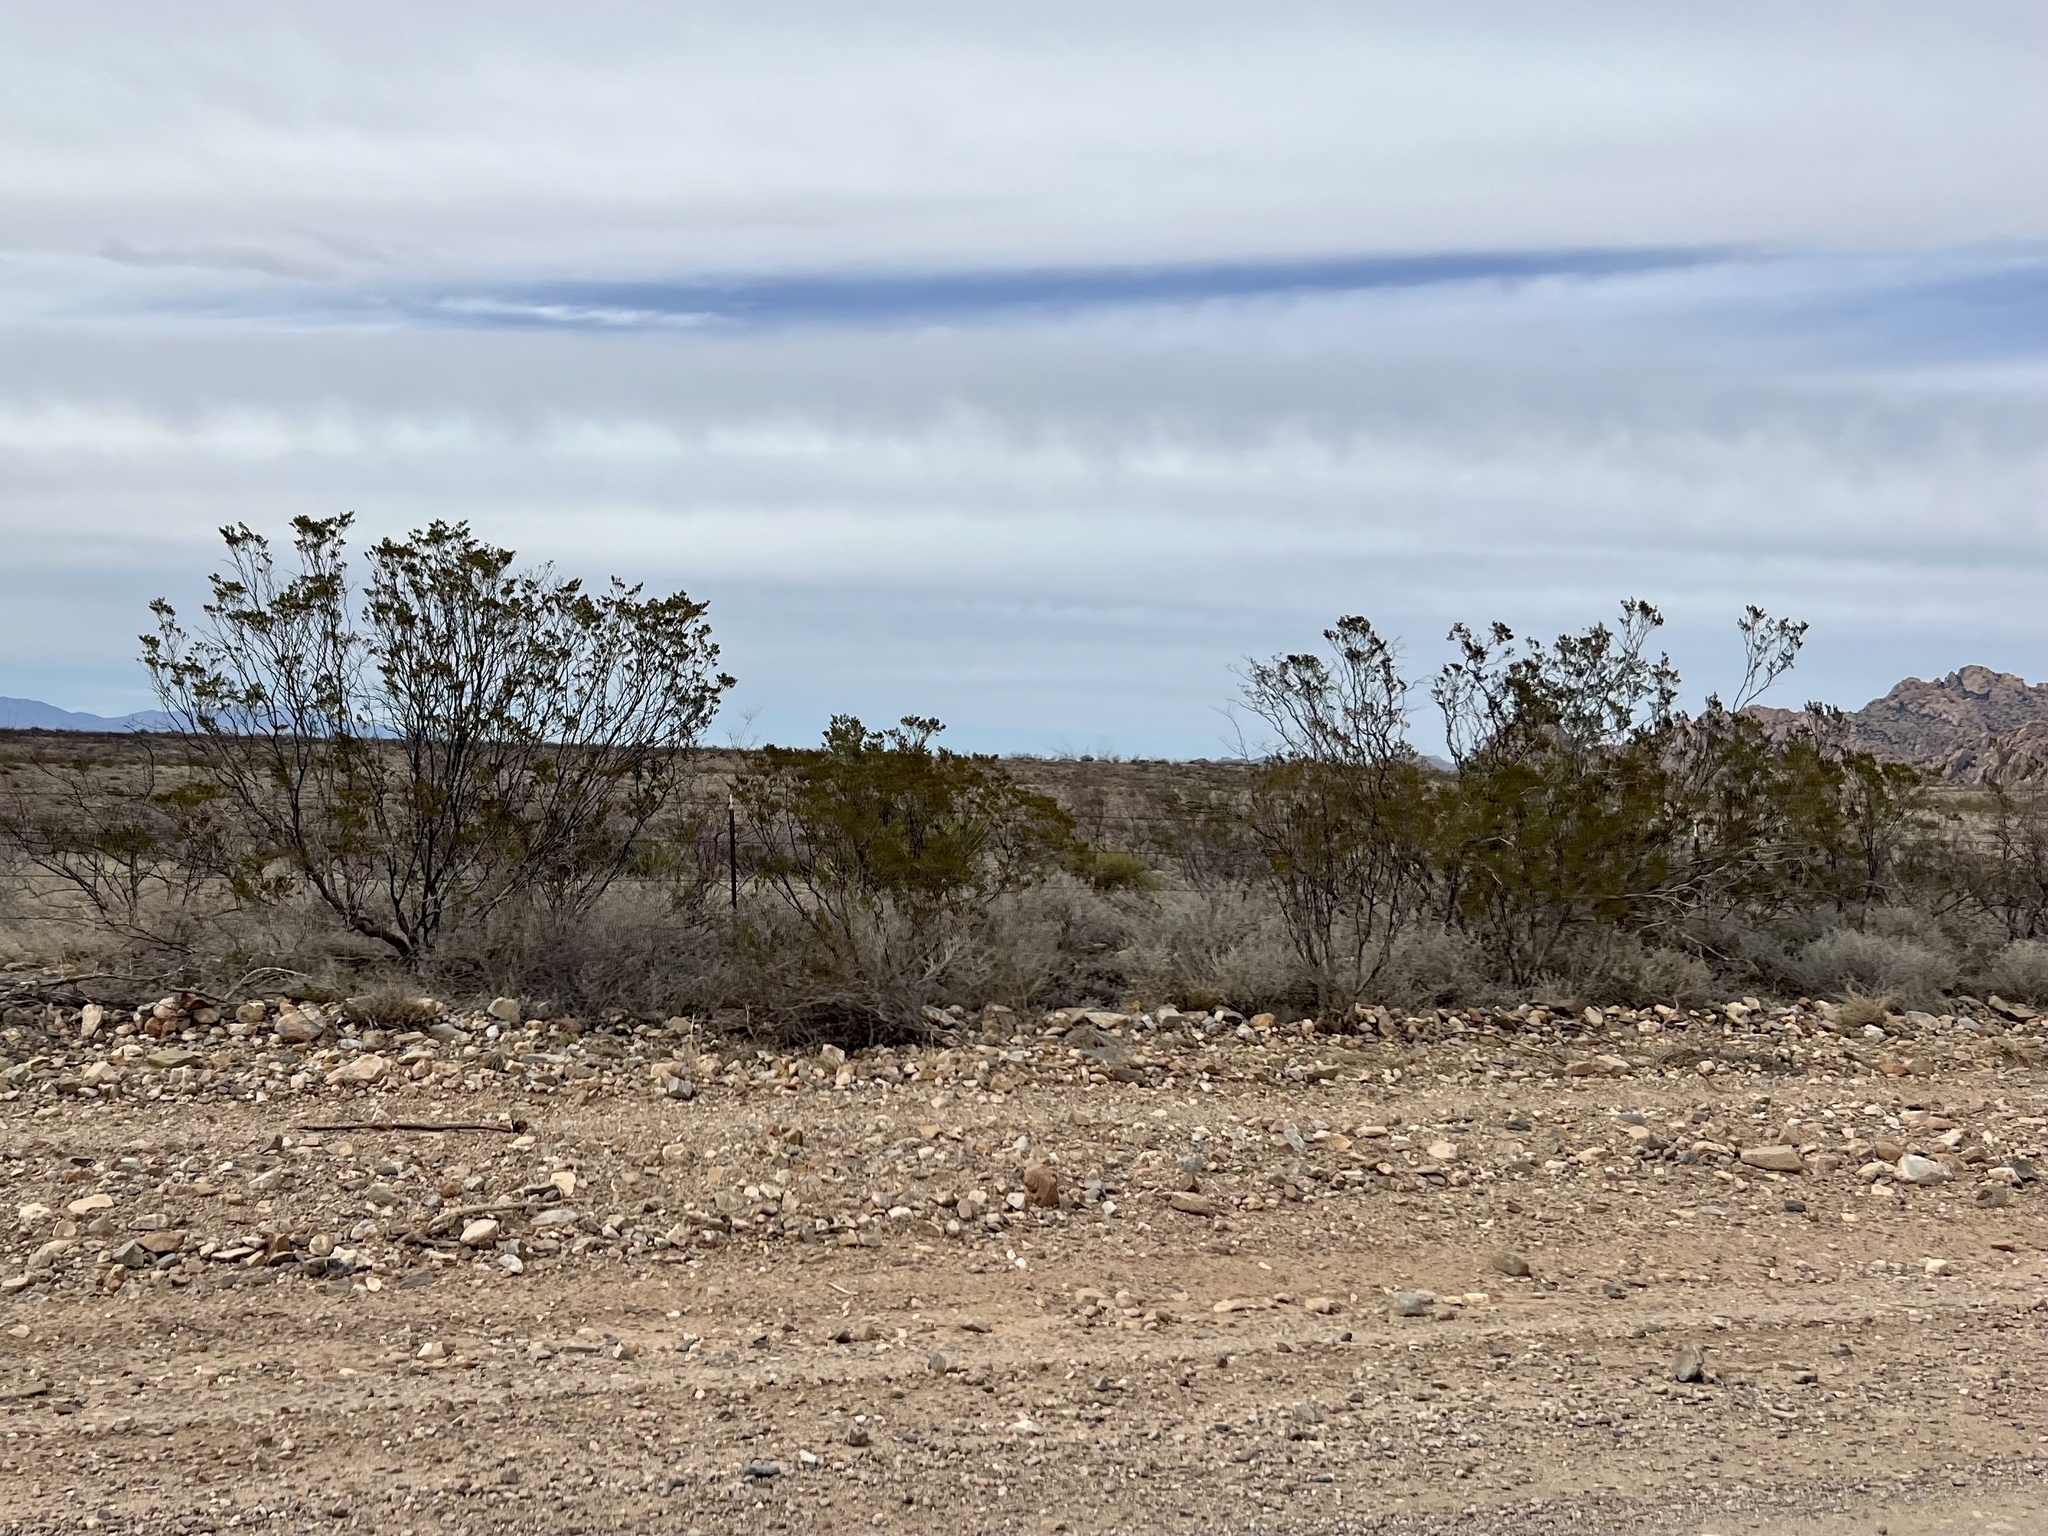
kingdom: Plantae
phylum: Tracheophyta
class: Magnoliopsida
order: Zygophyllales
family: Zygophyllaceae
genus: Larrea
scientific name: Larrea tridentata
